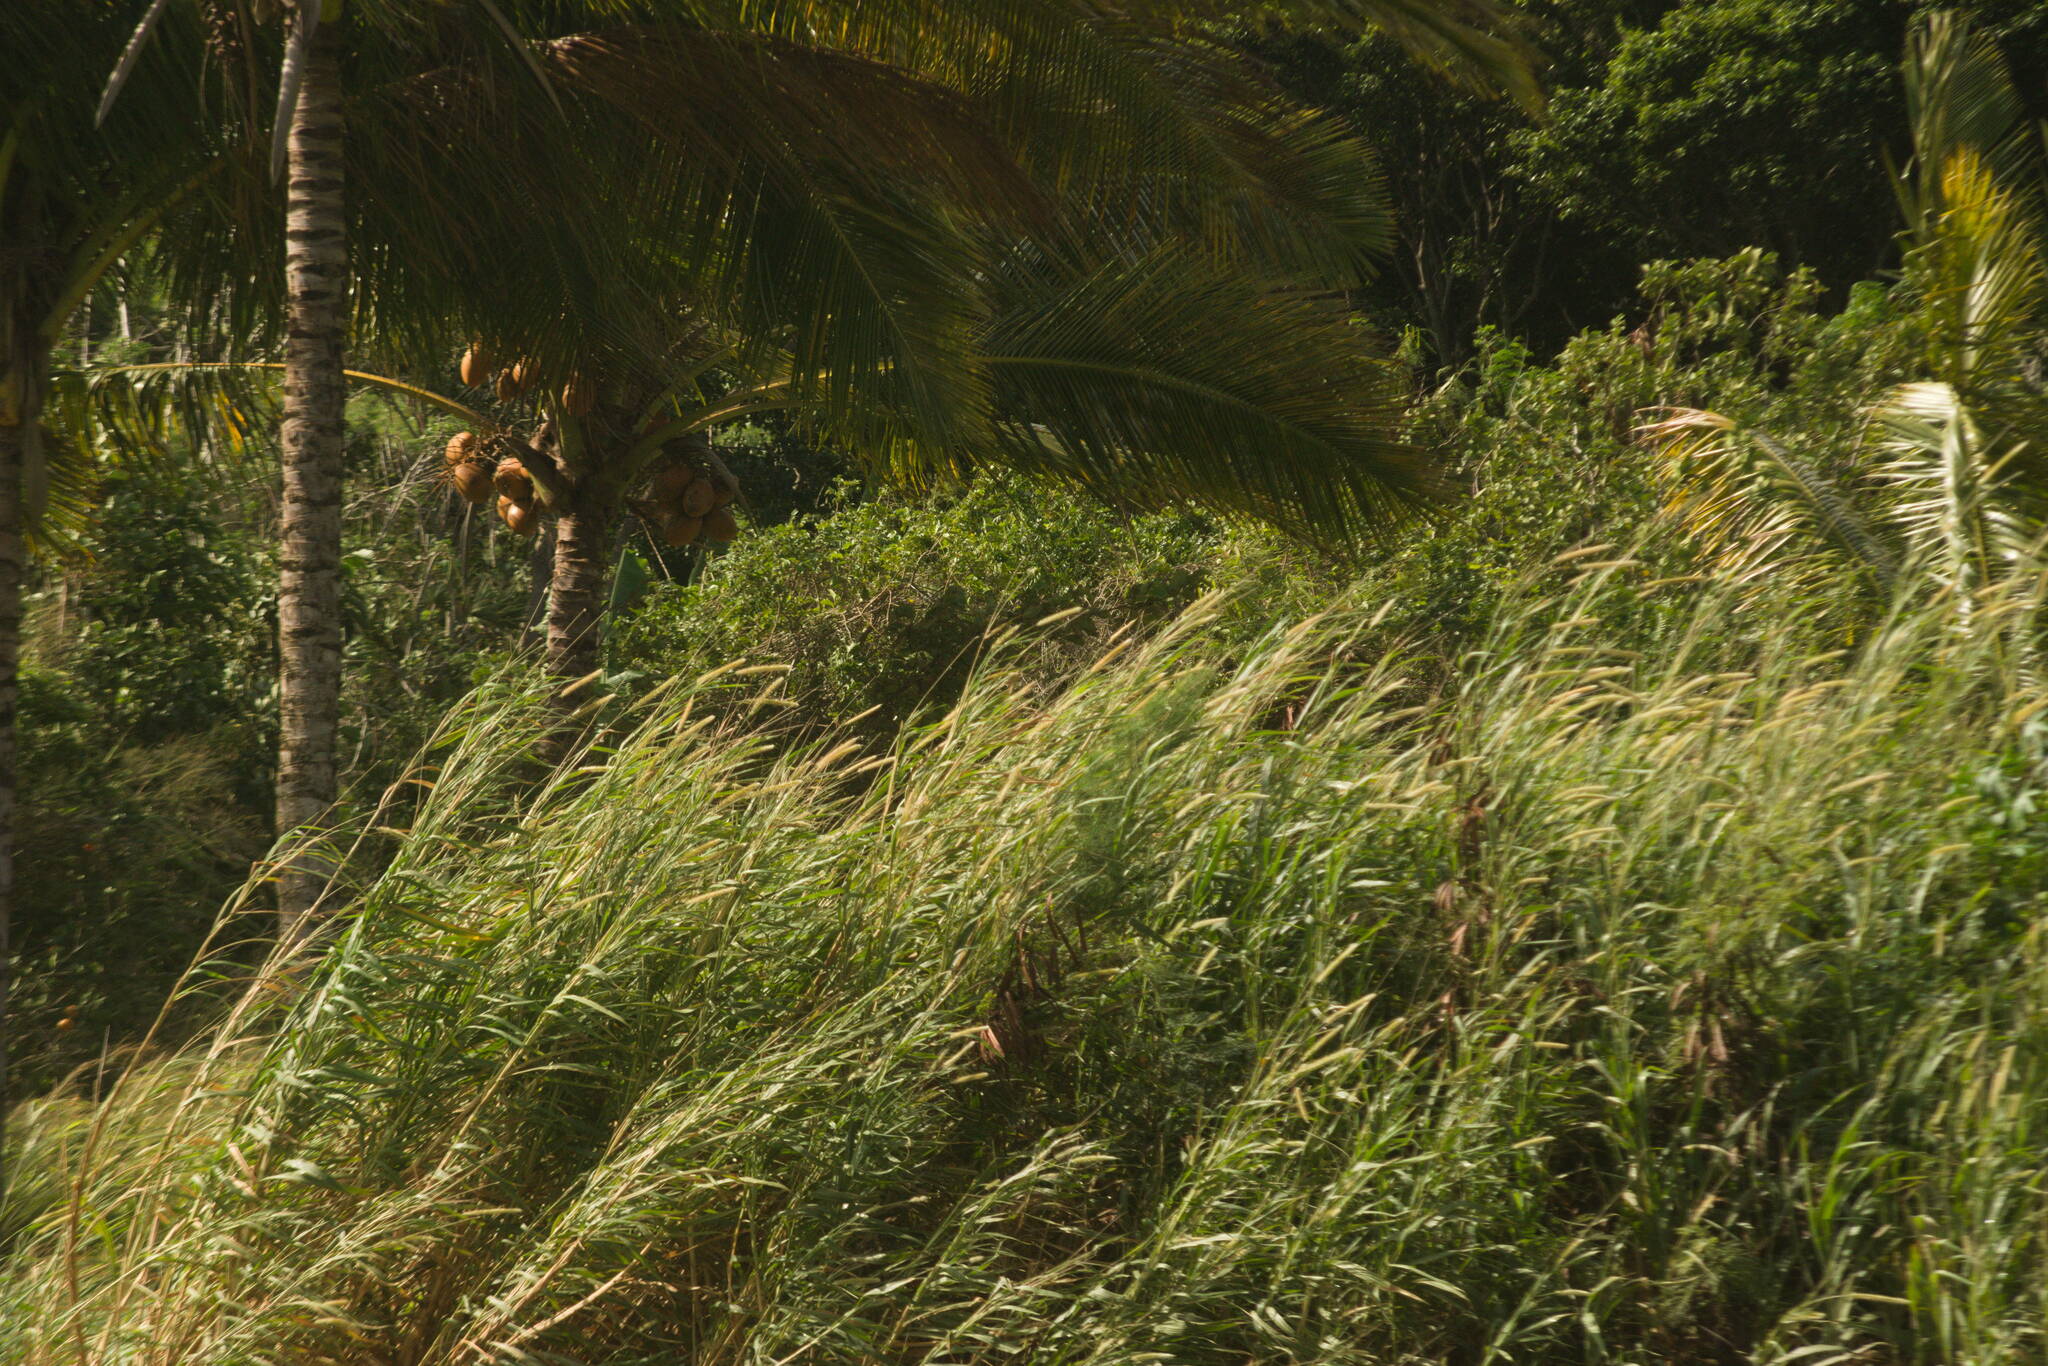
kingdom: Plantae
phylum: Tracheophyta
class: Liliopsida
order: Poales
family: Poaceae
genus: Cenchrus
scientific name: Cenchrus purpureus
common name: Elephant grass
